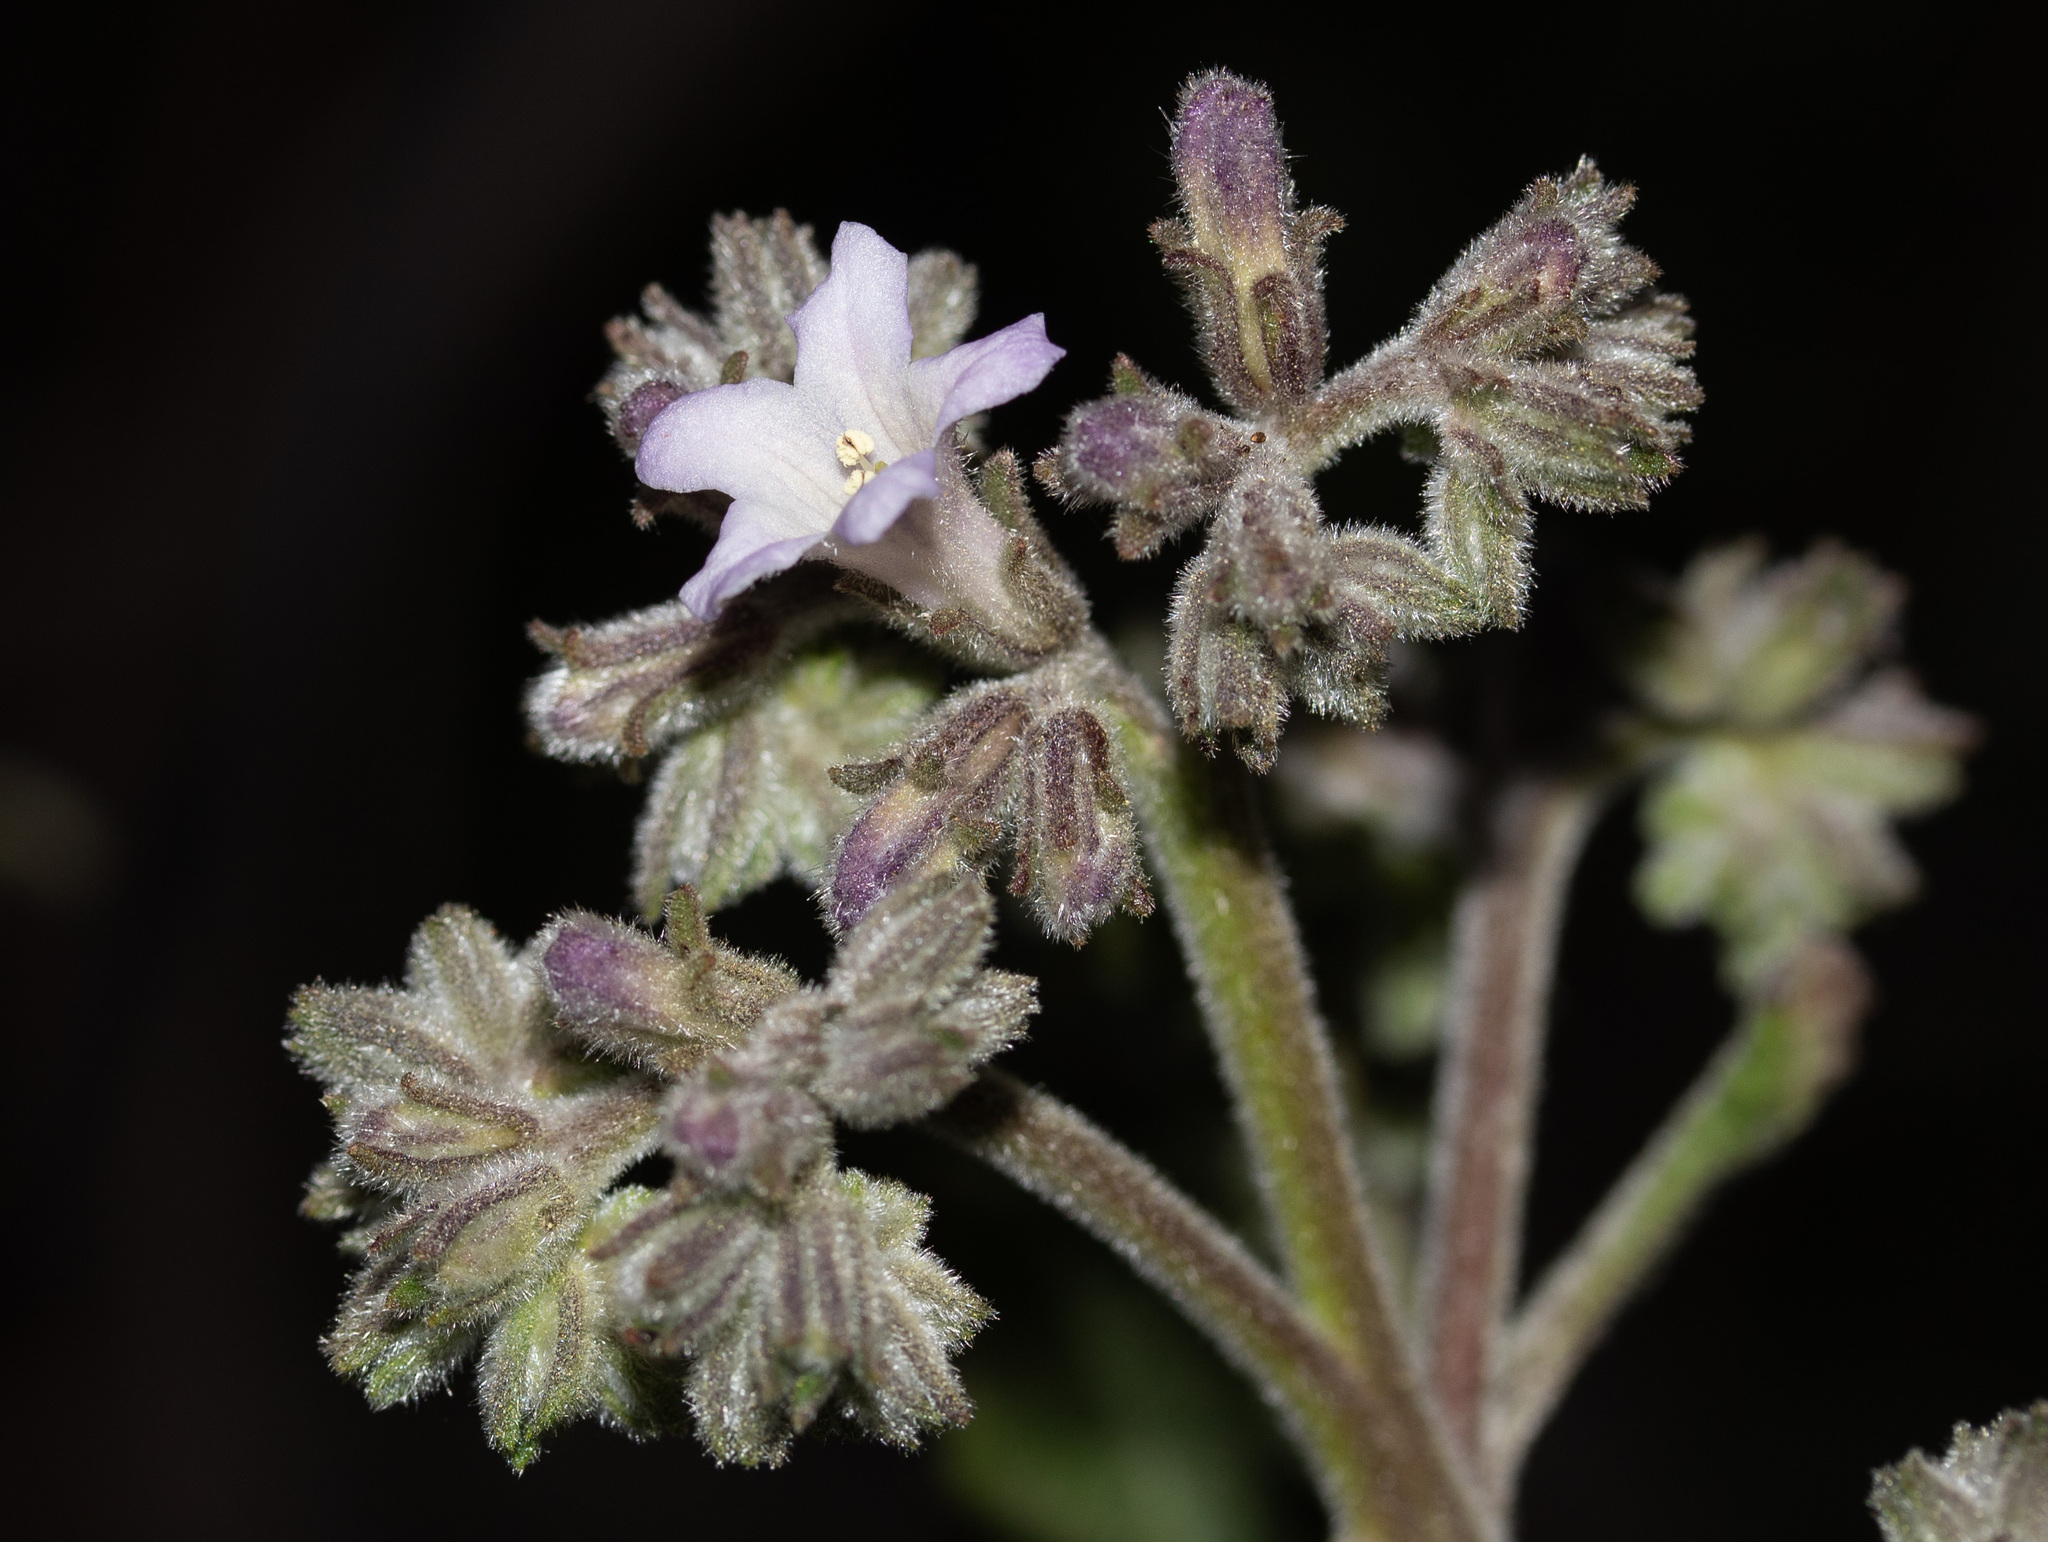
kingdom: Plantae
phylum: Tracheophyta
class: Magnoliopsida
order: Boraginales
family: Namaceae
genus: Eriodictyon
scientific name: Eriodictyon crassifolium
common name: Thick-leaf yerba-santa
